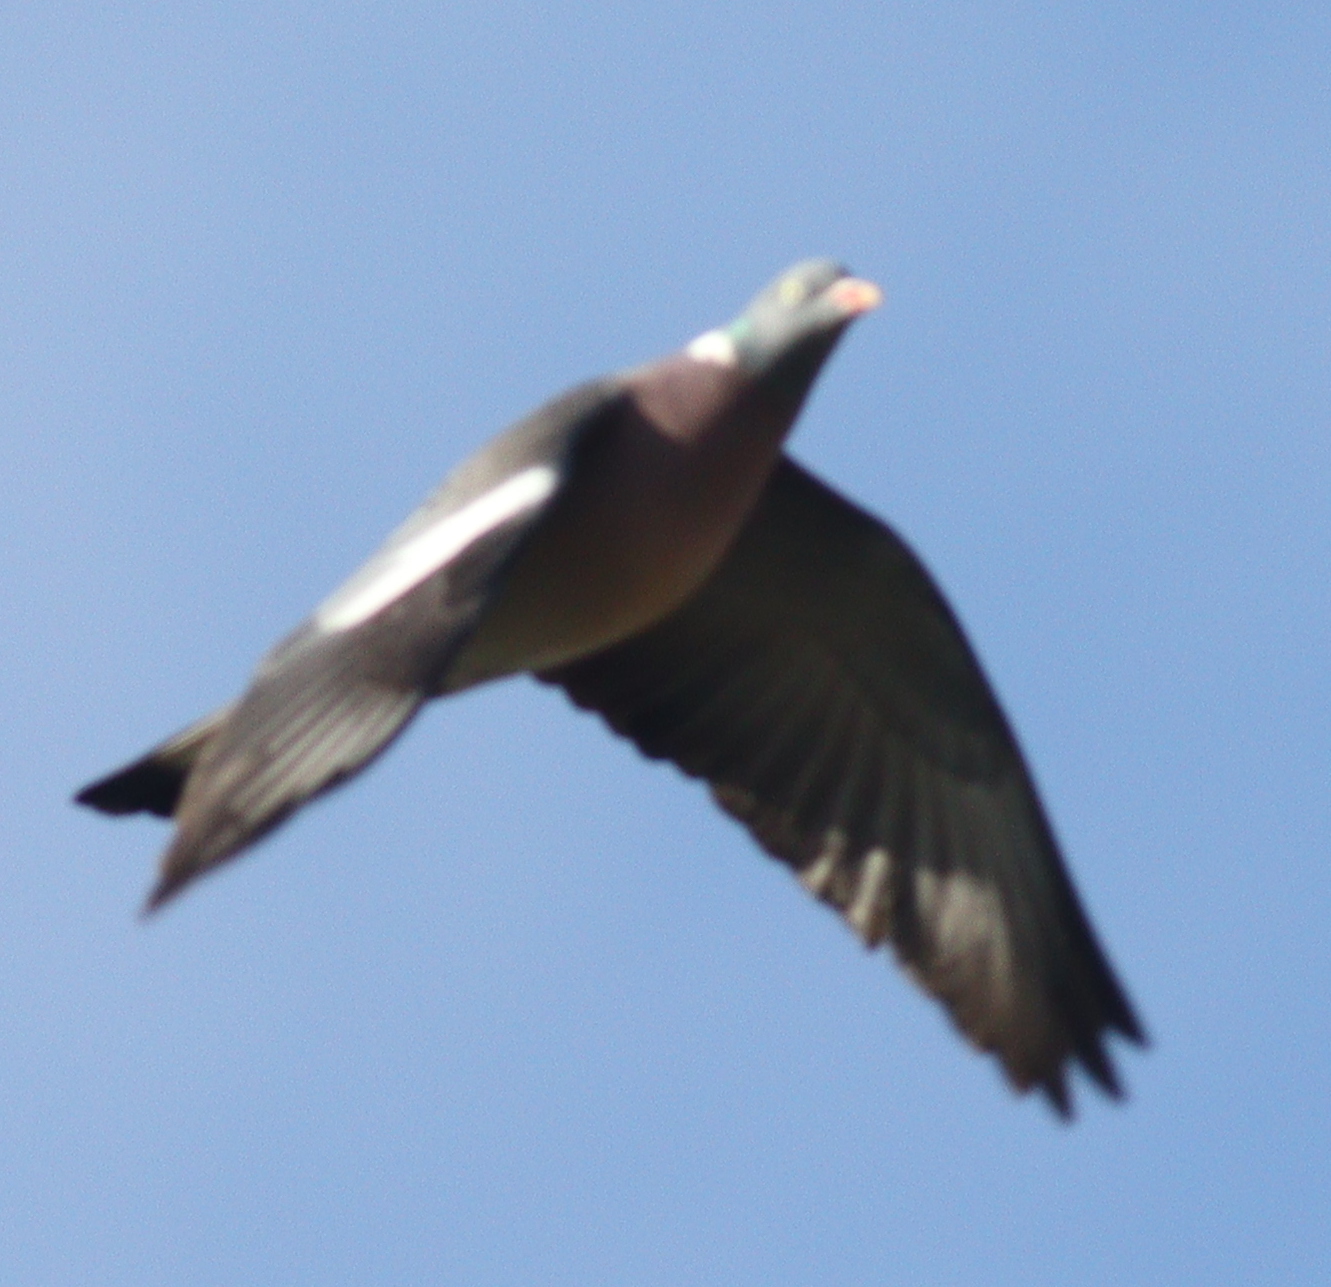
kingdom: Animalia
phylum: Chordata
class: Aves
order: Columbiformes
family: Columbidae
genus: Columba
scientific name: Columba palumbus
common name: Common wood pigeon
